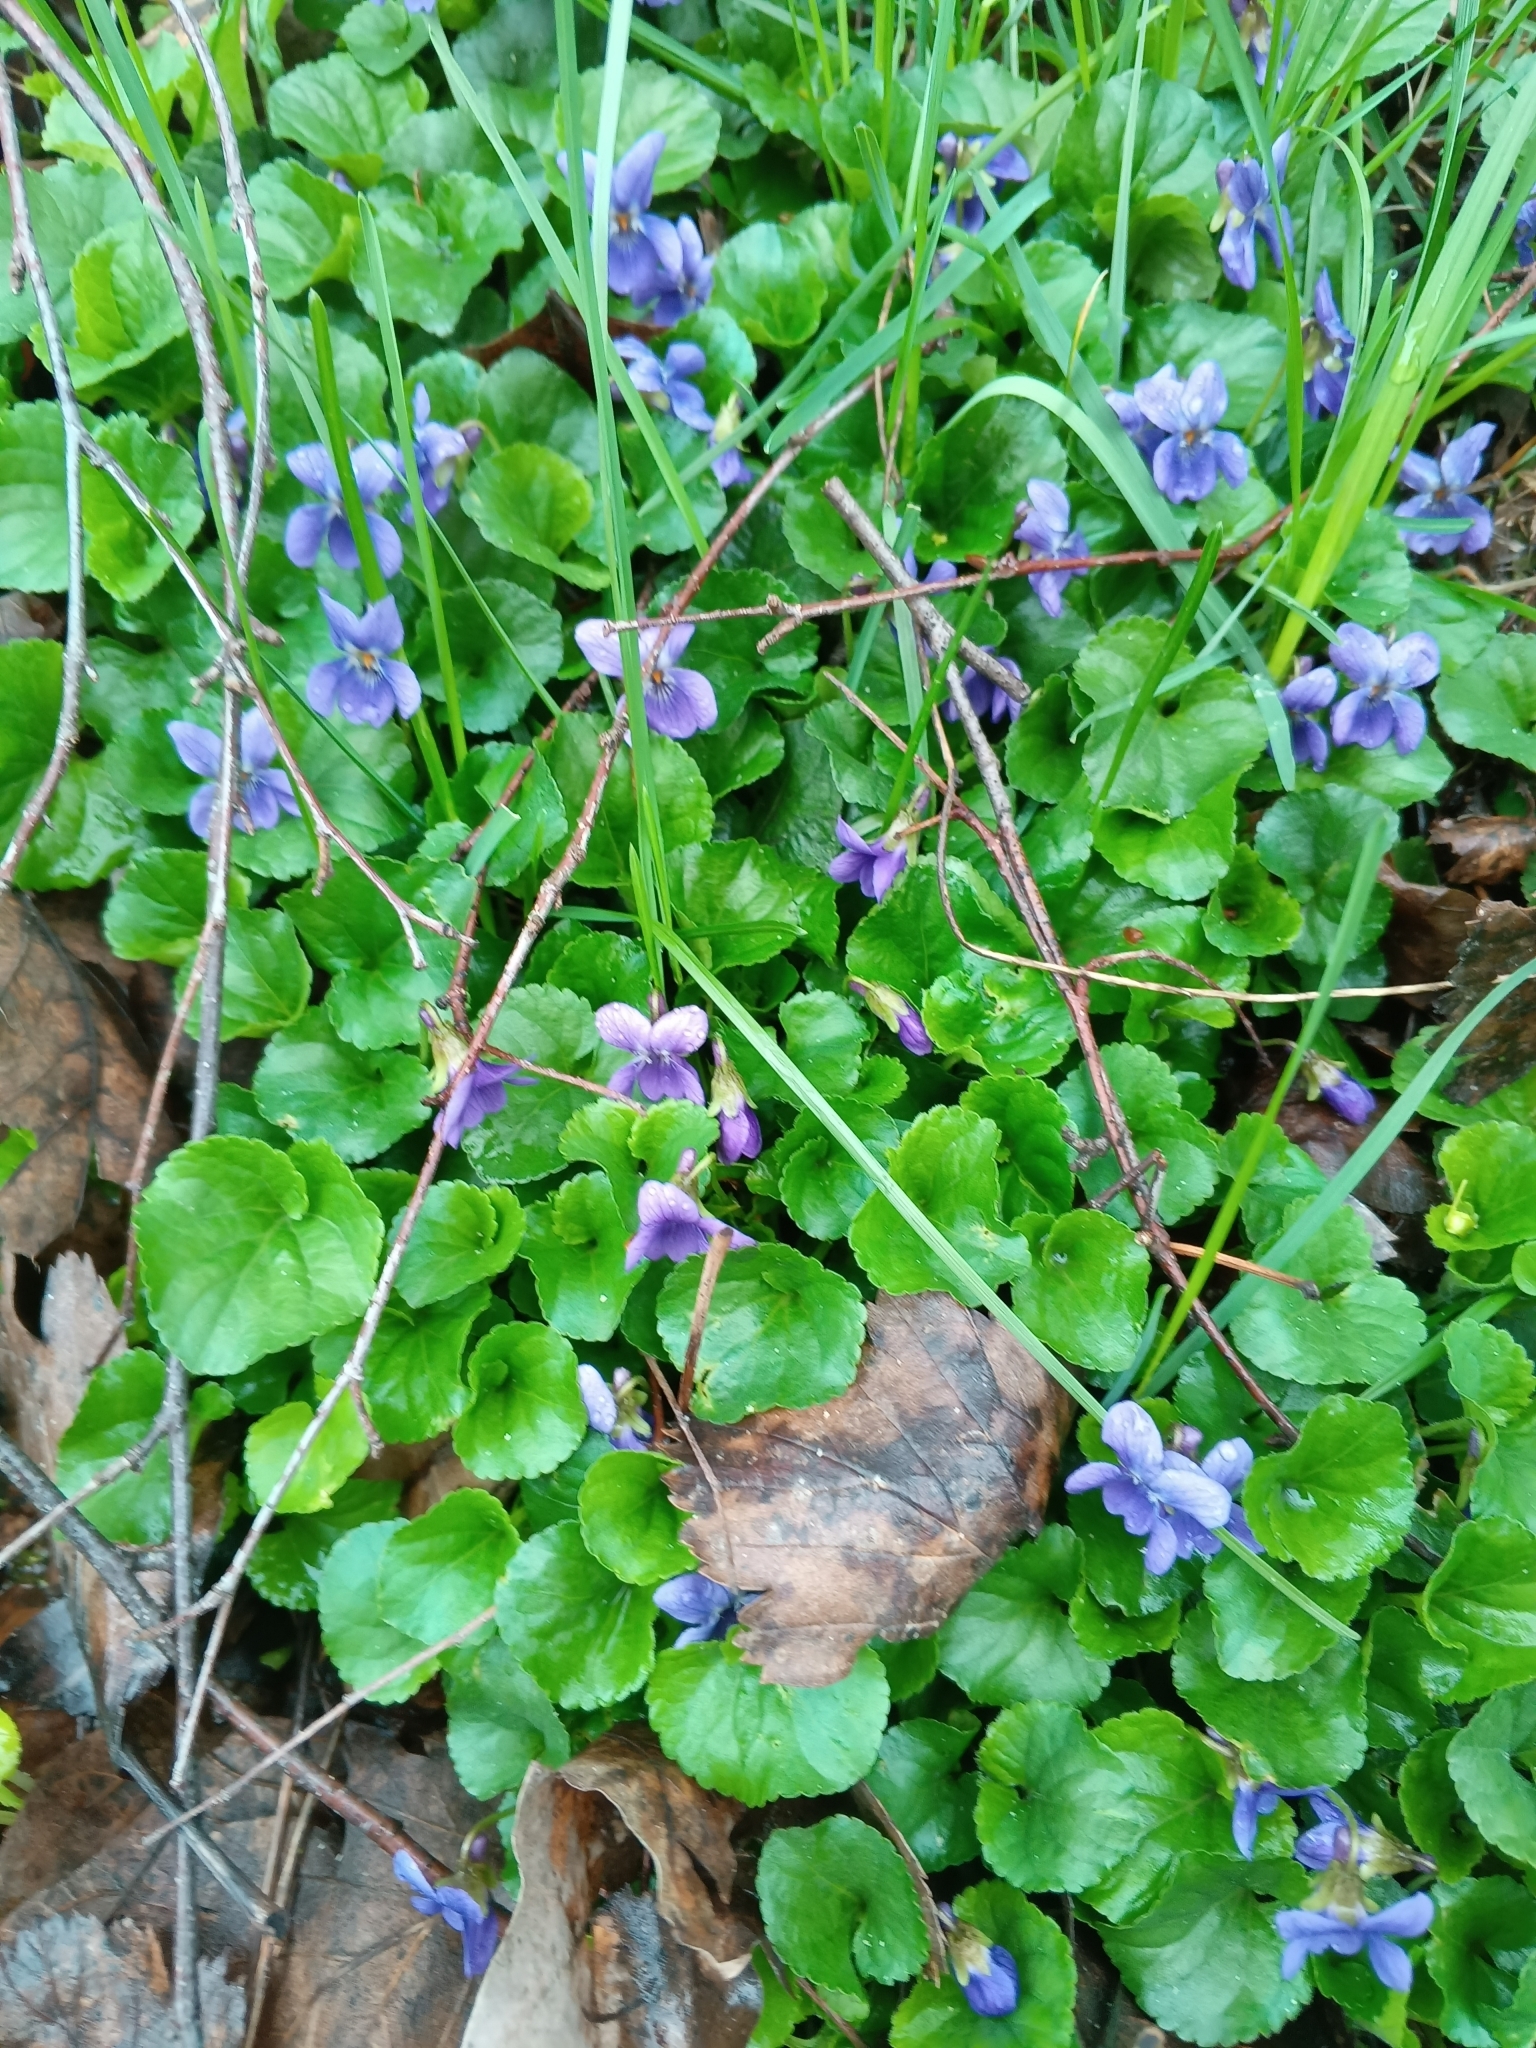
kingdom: Plantae
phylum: Tracheophyta
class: Magnoliopsida
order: Malpighiales
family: Violaceae
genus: Viola
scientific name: Viola odorata
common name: Sweet violet
